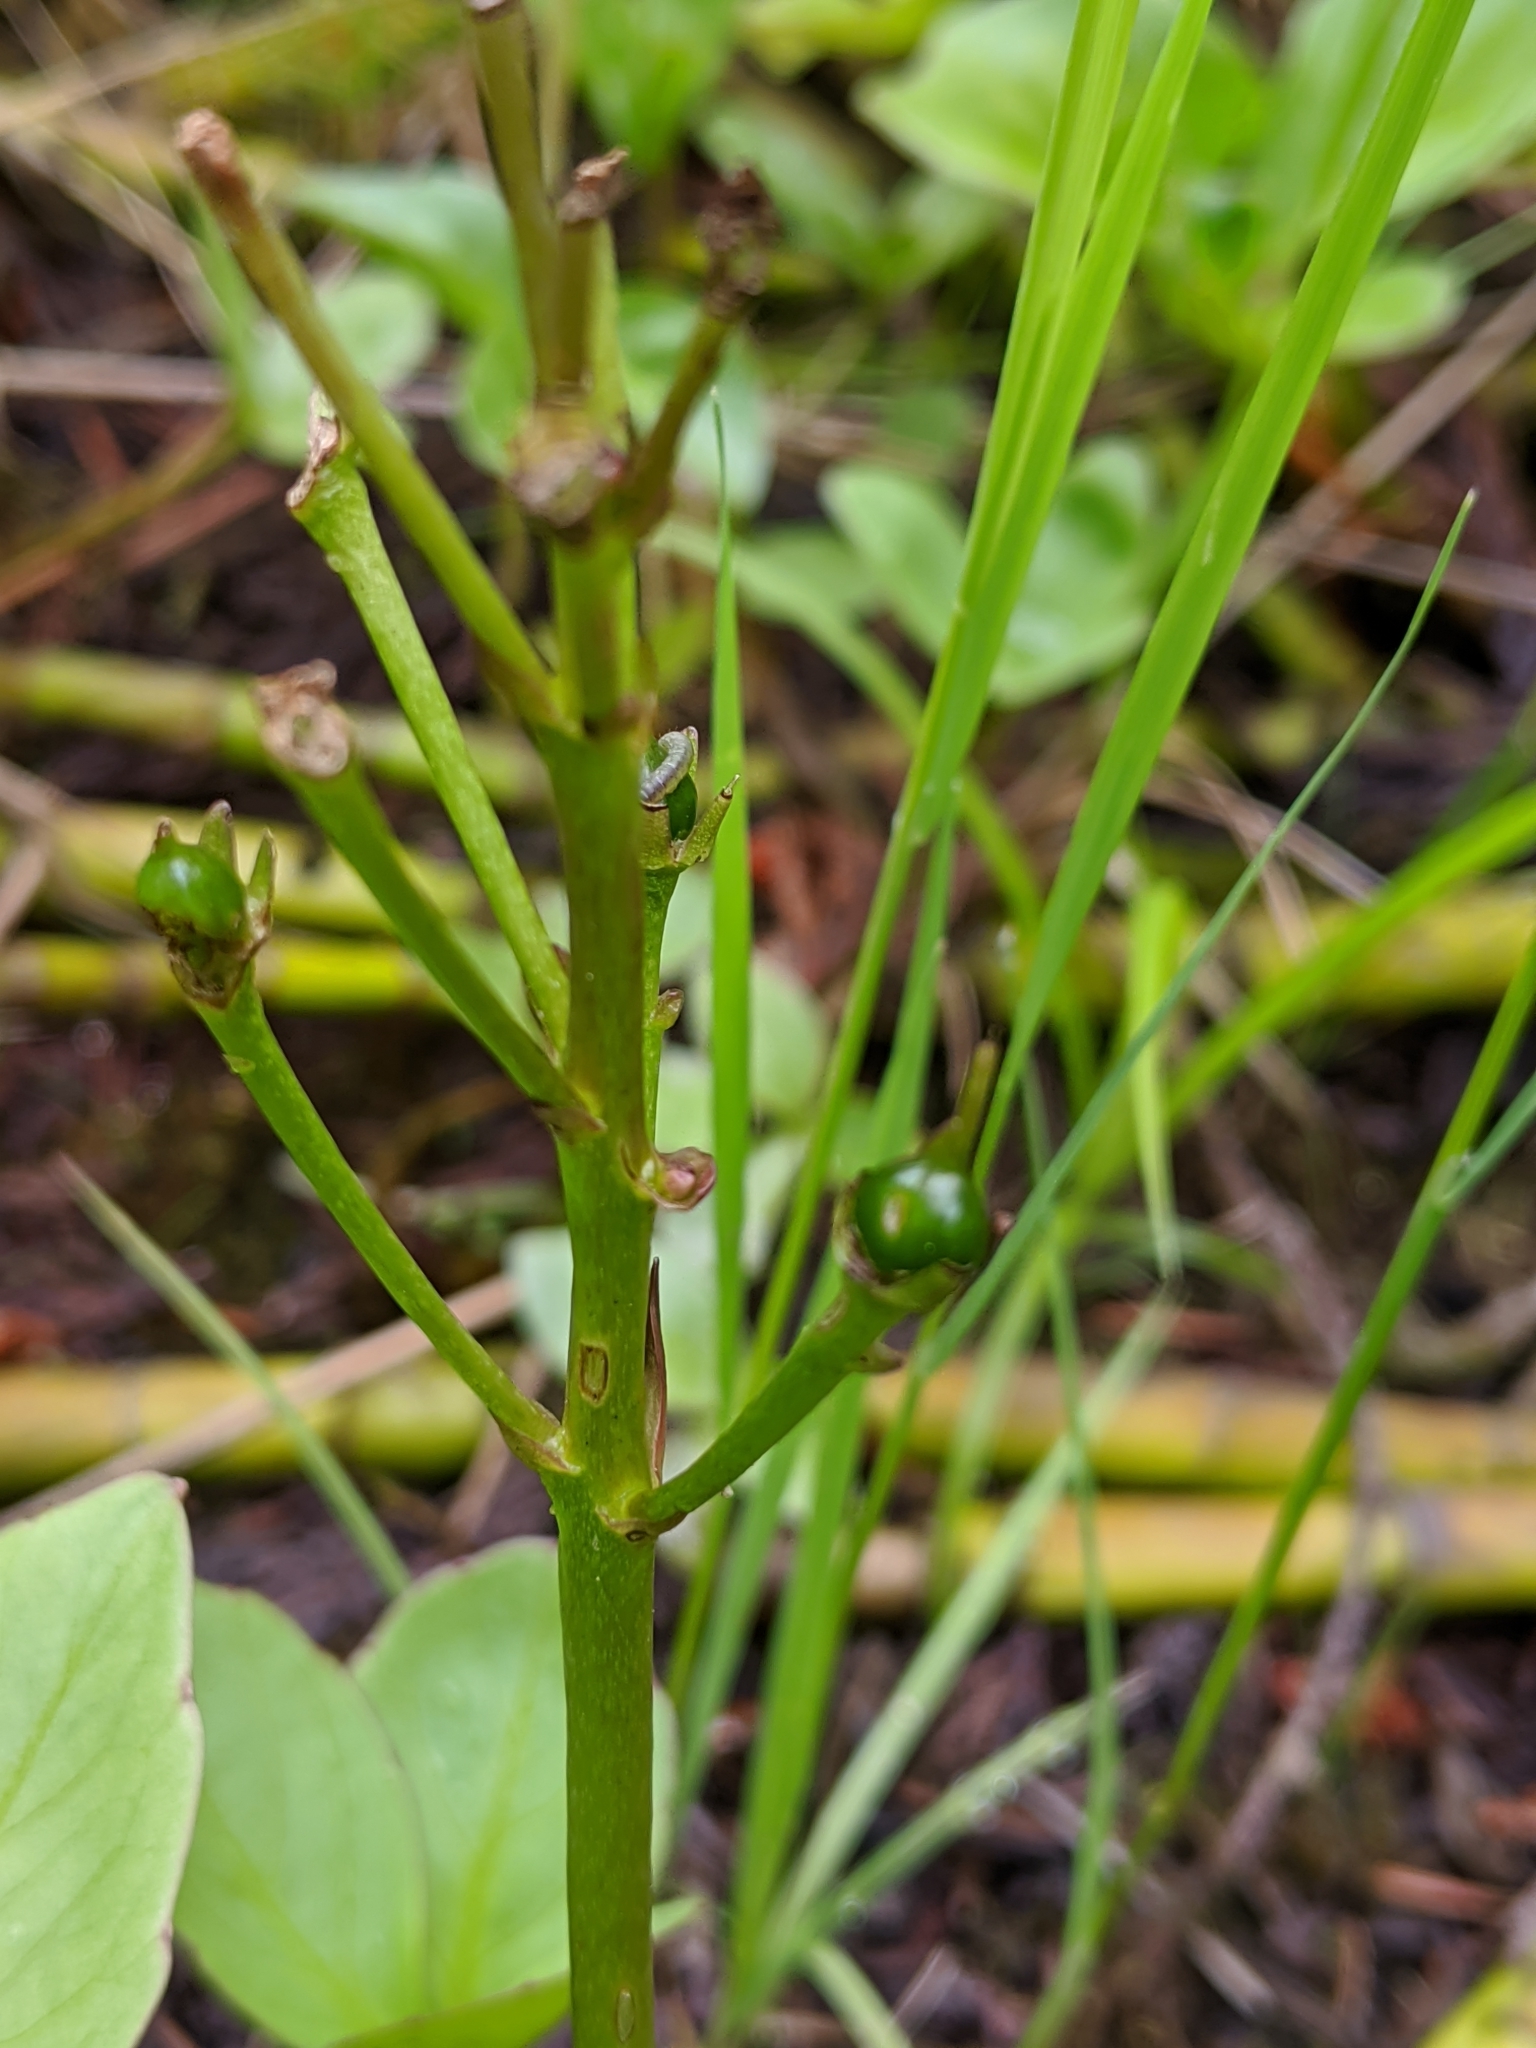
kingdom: Plantae
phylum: Tracheophyta
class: Magnoliopsida
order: Asterales
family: Menyanthaceae
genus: Menyanthes
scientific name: Menyanthes trifoliata
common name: Bogbean
